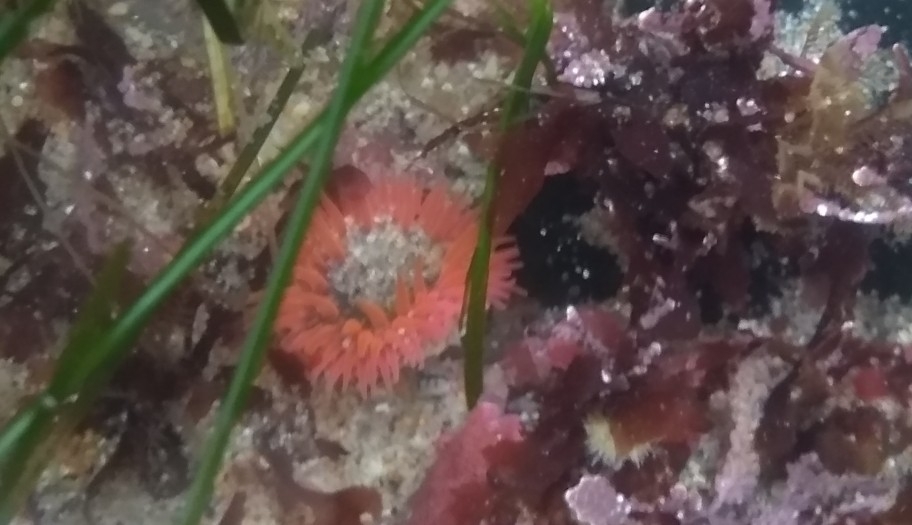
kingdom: Animalia
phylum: Cnidaria
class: Anthozoa
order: Actiniaria
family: Actiniidae
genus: Anthopleura
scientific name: Anthopleura artemisia
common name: Buried sea anemone
